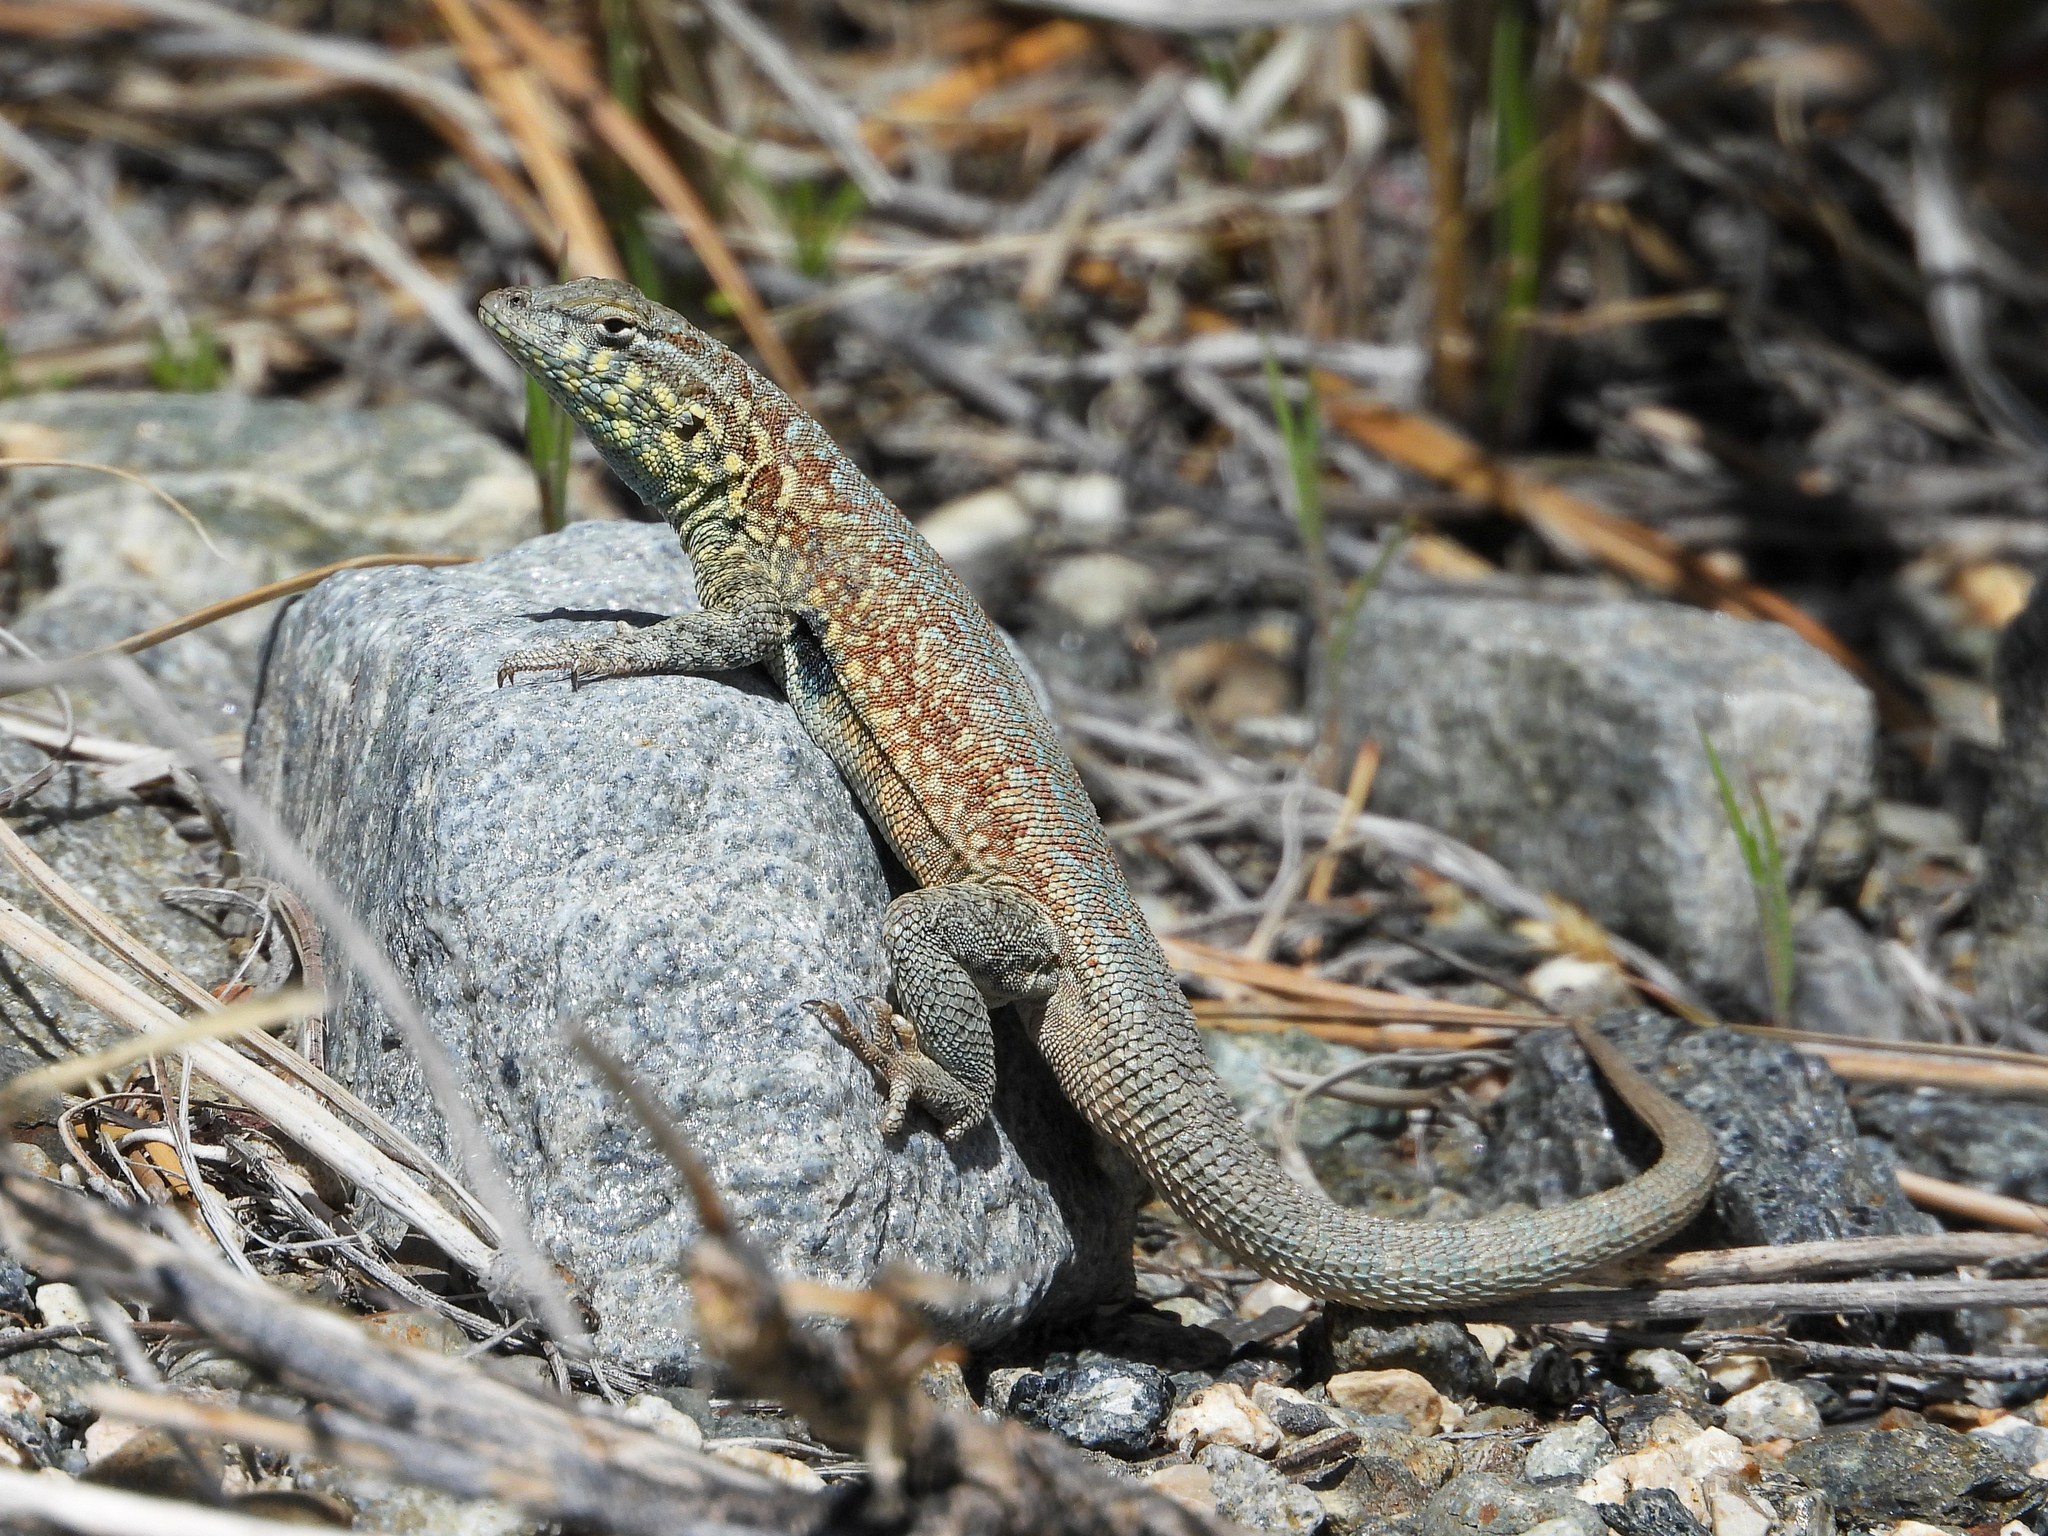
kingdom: Animalia
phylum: Chordata
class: Squamata
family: Phrynosomatidae
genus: Uta
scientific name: Uta stansburiana
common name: Side-blotched lizard
